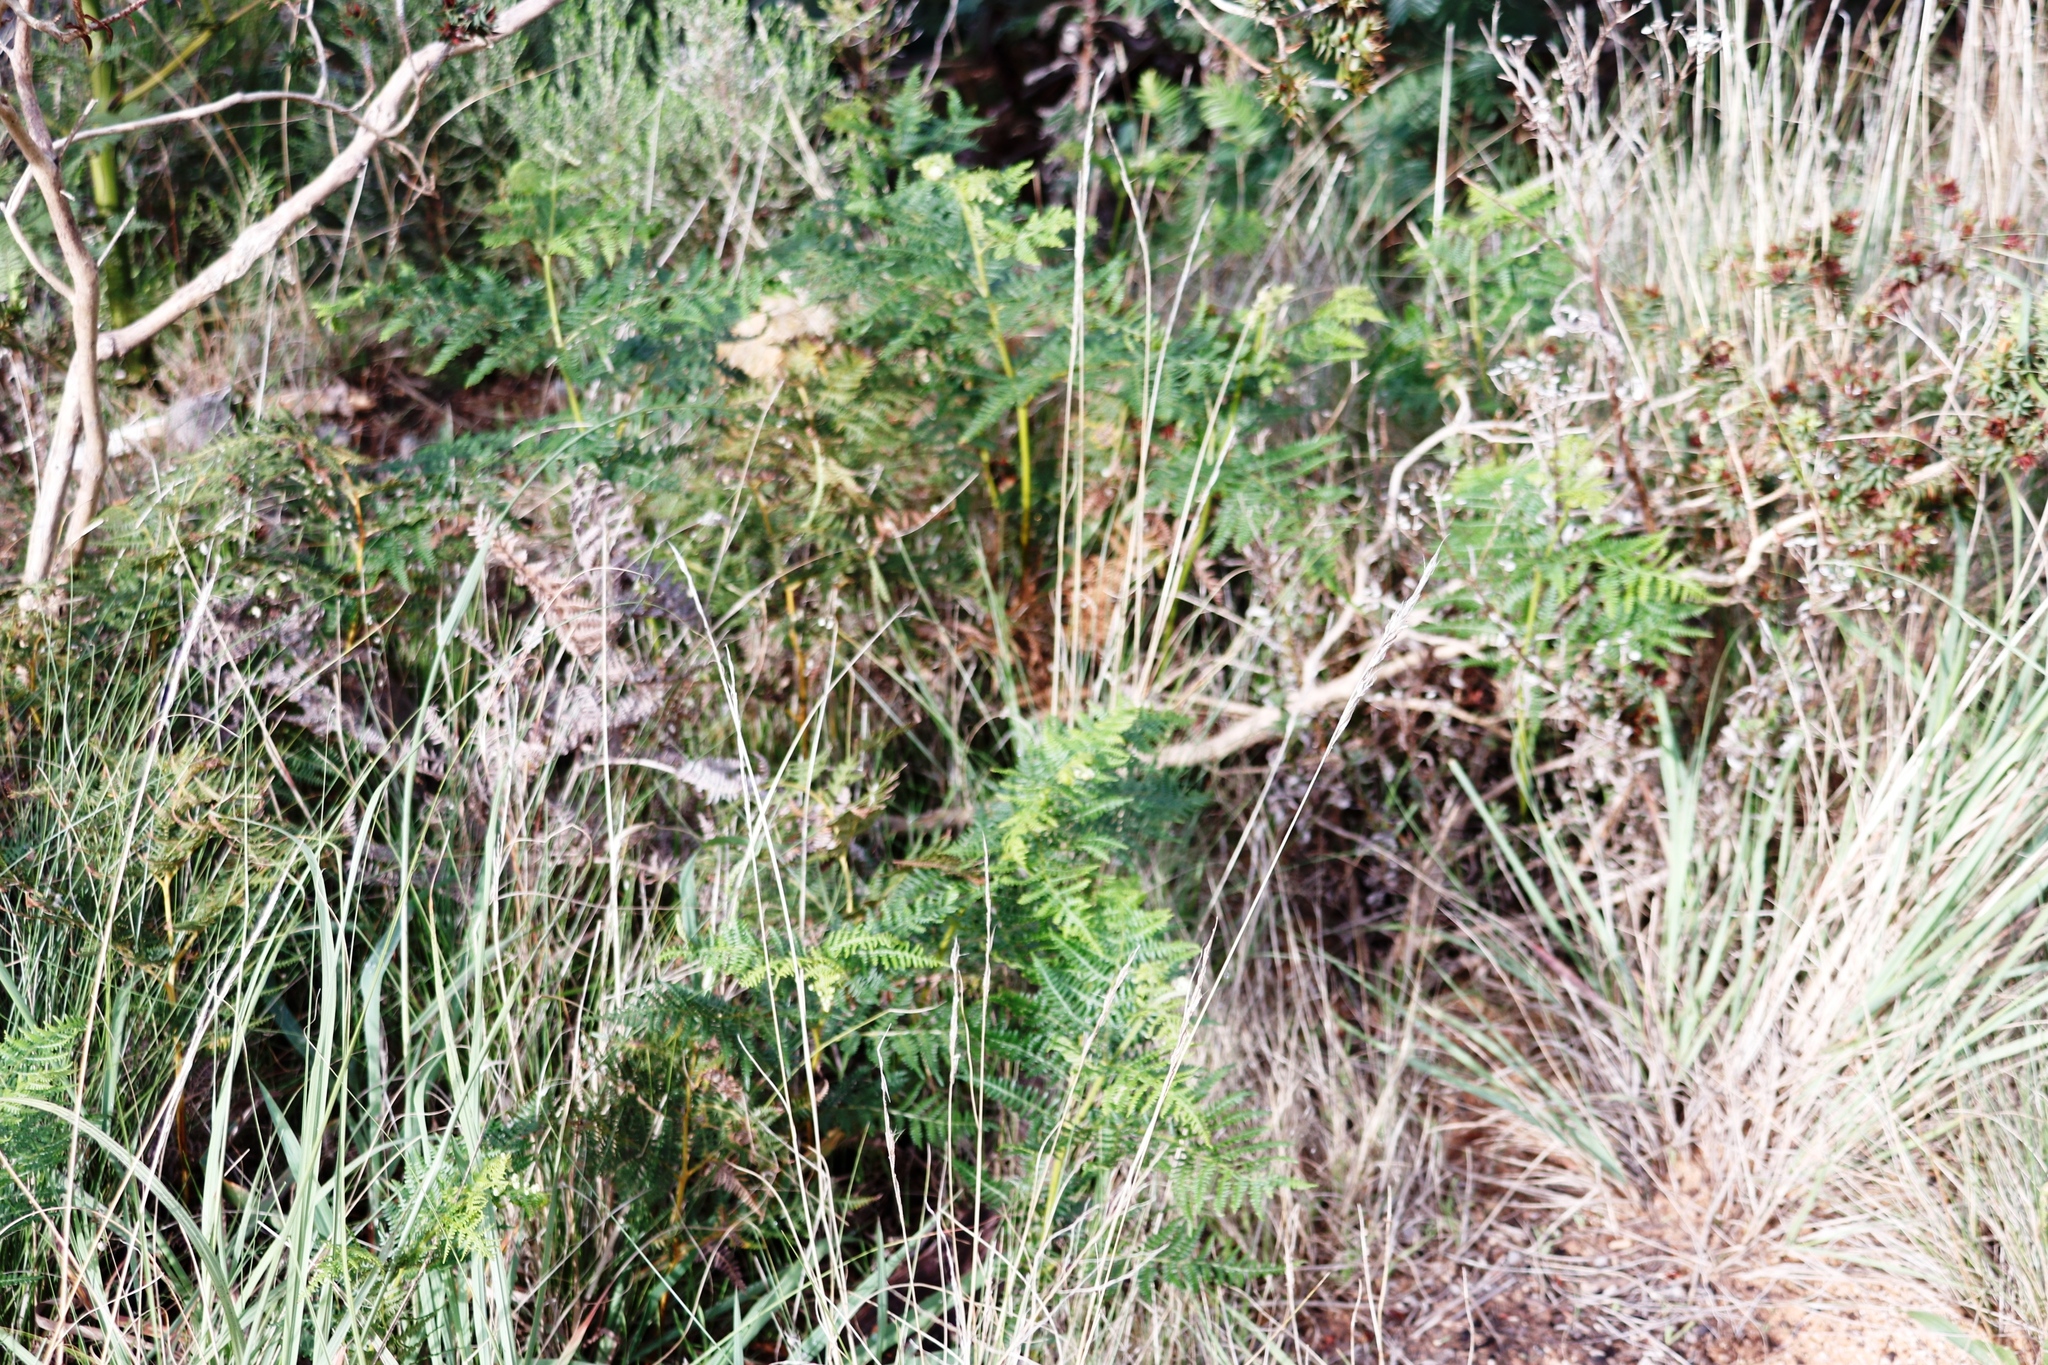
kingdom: Plantae
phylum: Tracheophyta
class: Polypodiopsida
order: Polypodiales
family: Dennstaedtiaceae
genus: Pteridium
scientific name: Pteridium aquilinum
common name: Bracken
